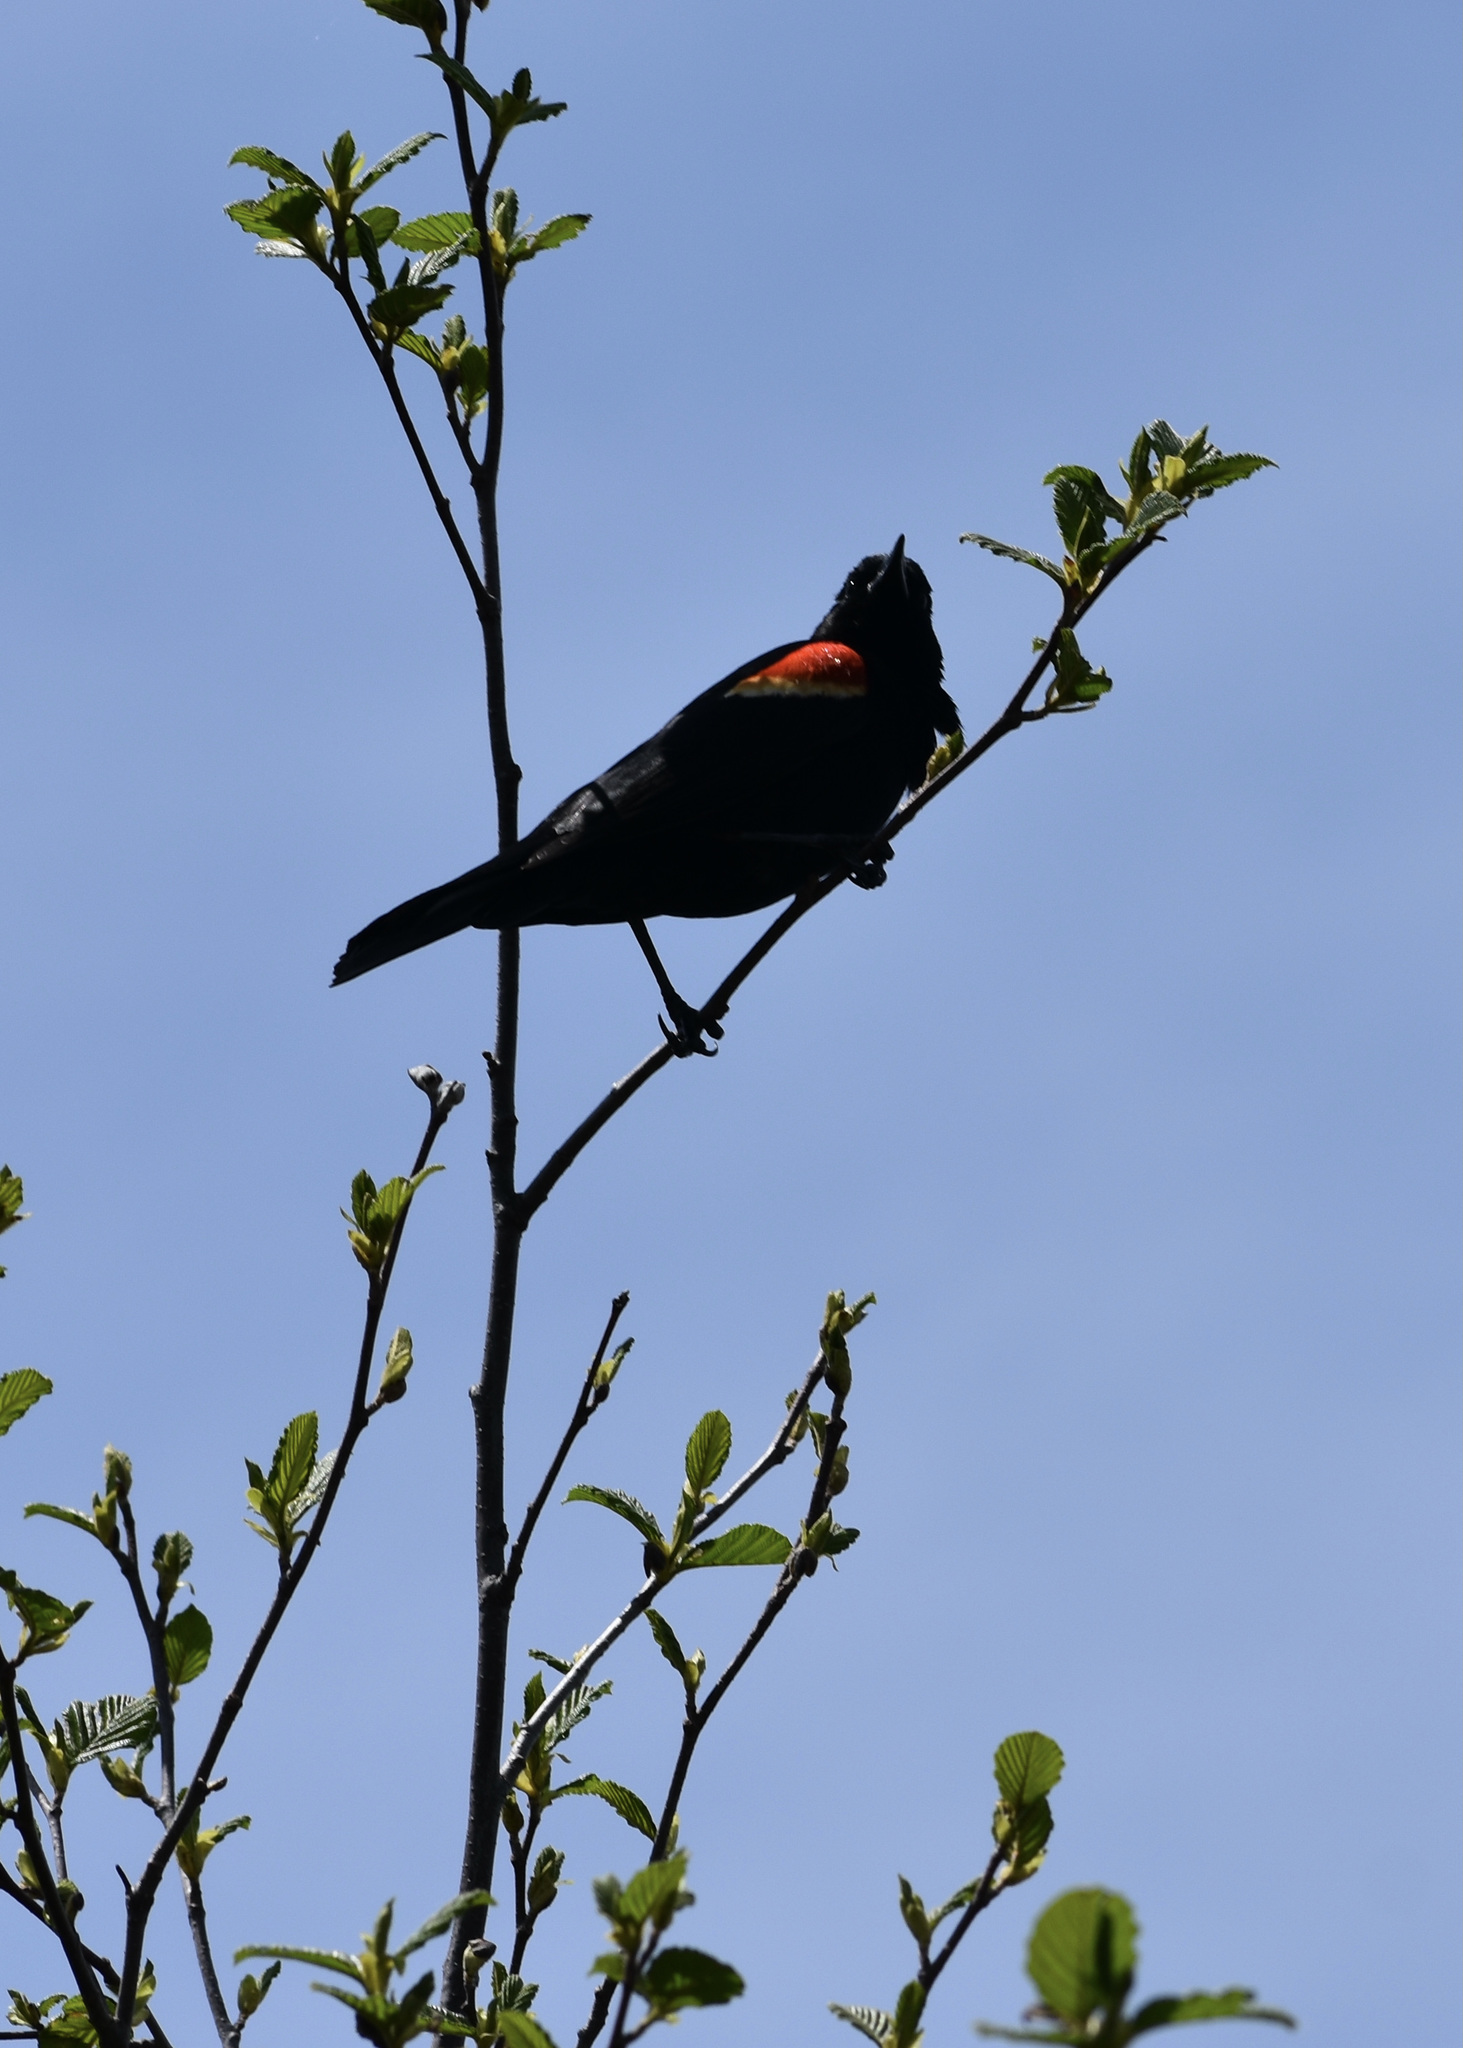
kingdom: Animalia
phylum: Chordata
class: Aves
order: Passeriformes
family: Icteridae
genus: Agelaius
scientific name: Agelaius phoeniceus
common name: Red-winged blackbird
